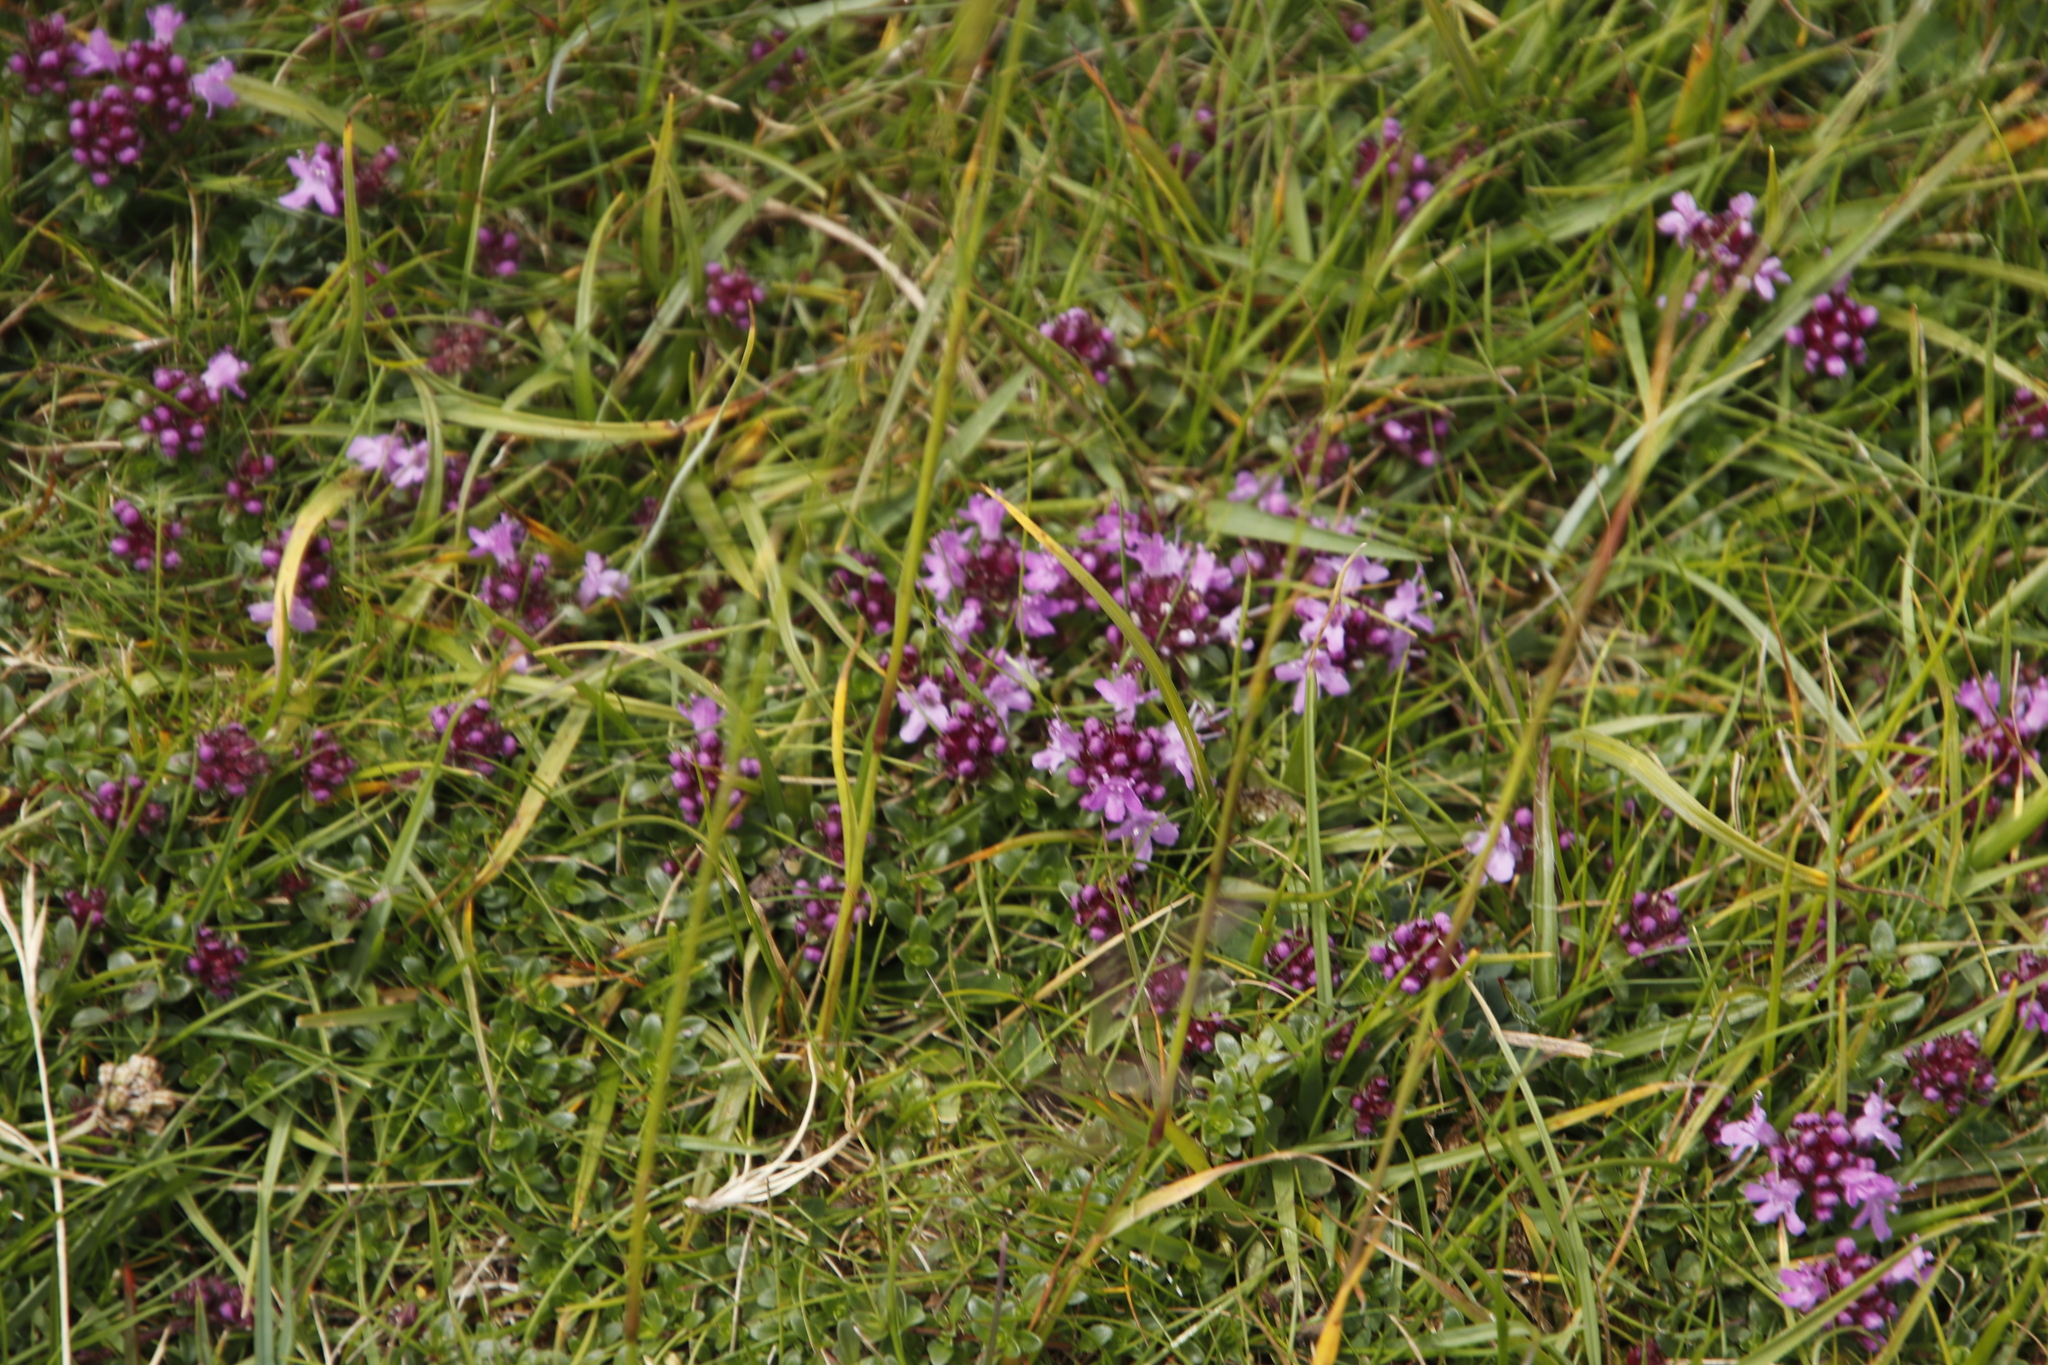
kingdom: Plantae
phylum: Tracheophyta
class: Magnoliopsida
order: Lamiales
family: Lamiaceae
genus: Thymus
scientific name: Thymus praecox
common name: Wild thyme
